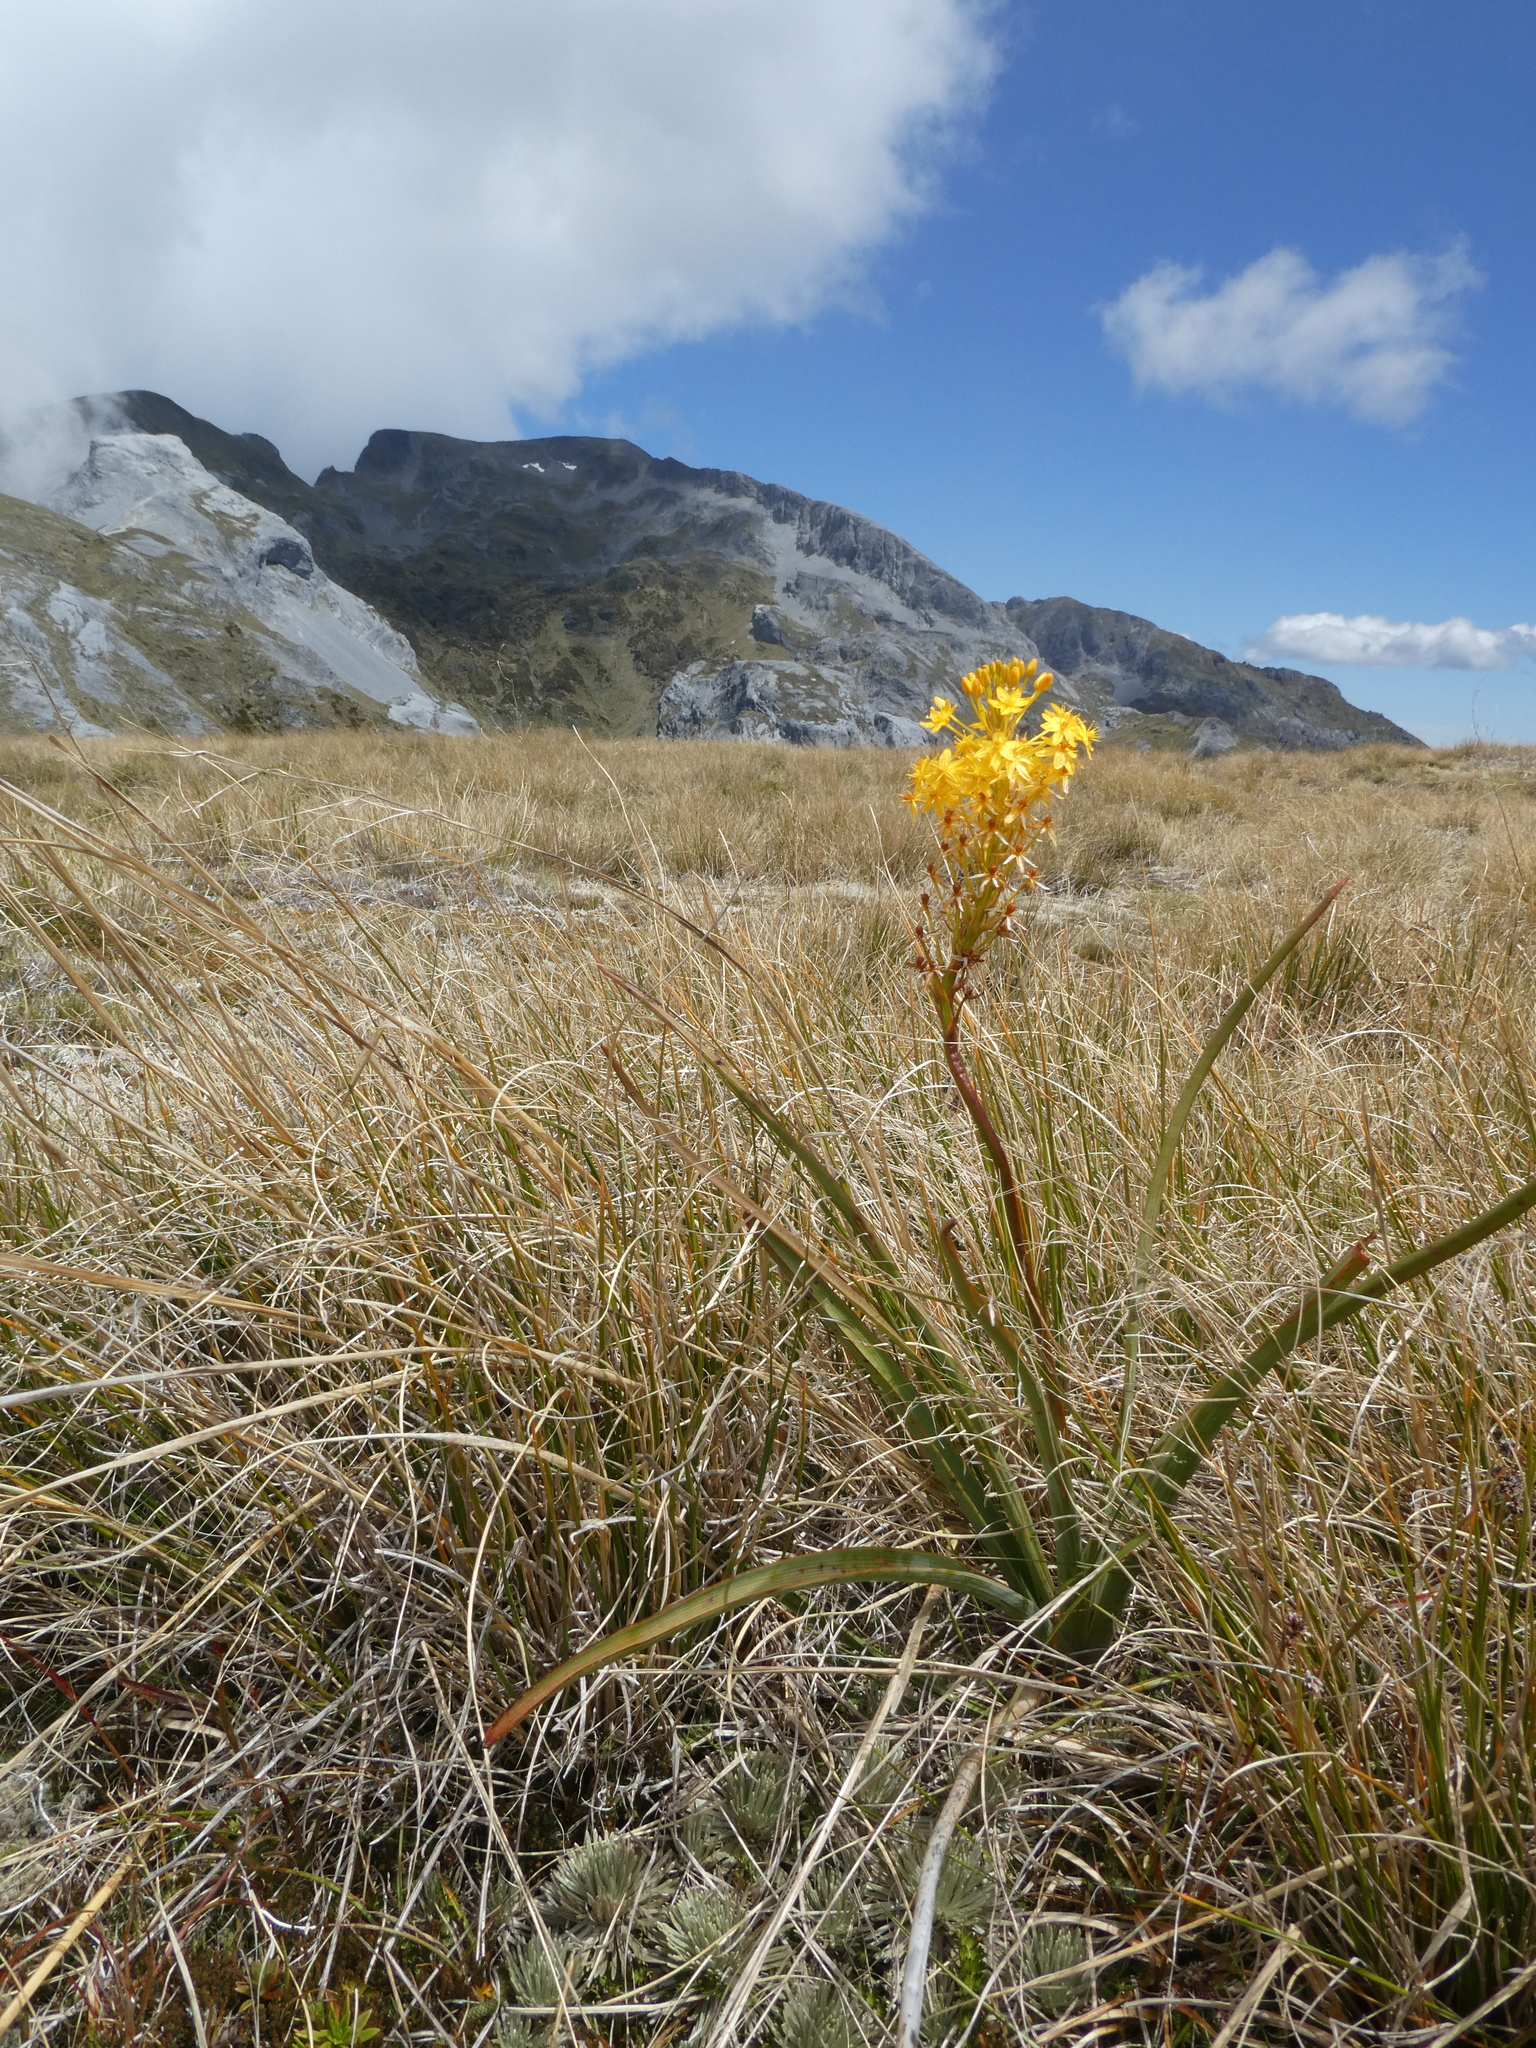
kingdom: Plantae
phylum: Tracheophyta
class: Liliopsida
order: Asparagales
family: Asphodelaceae
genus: Bulbinella
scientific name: Bulbinella hookeri
